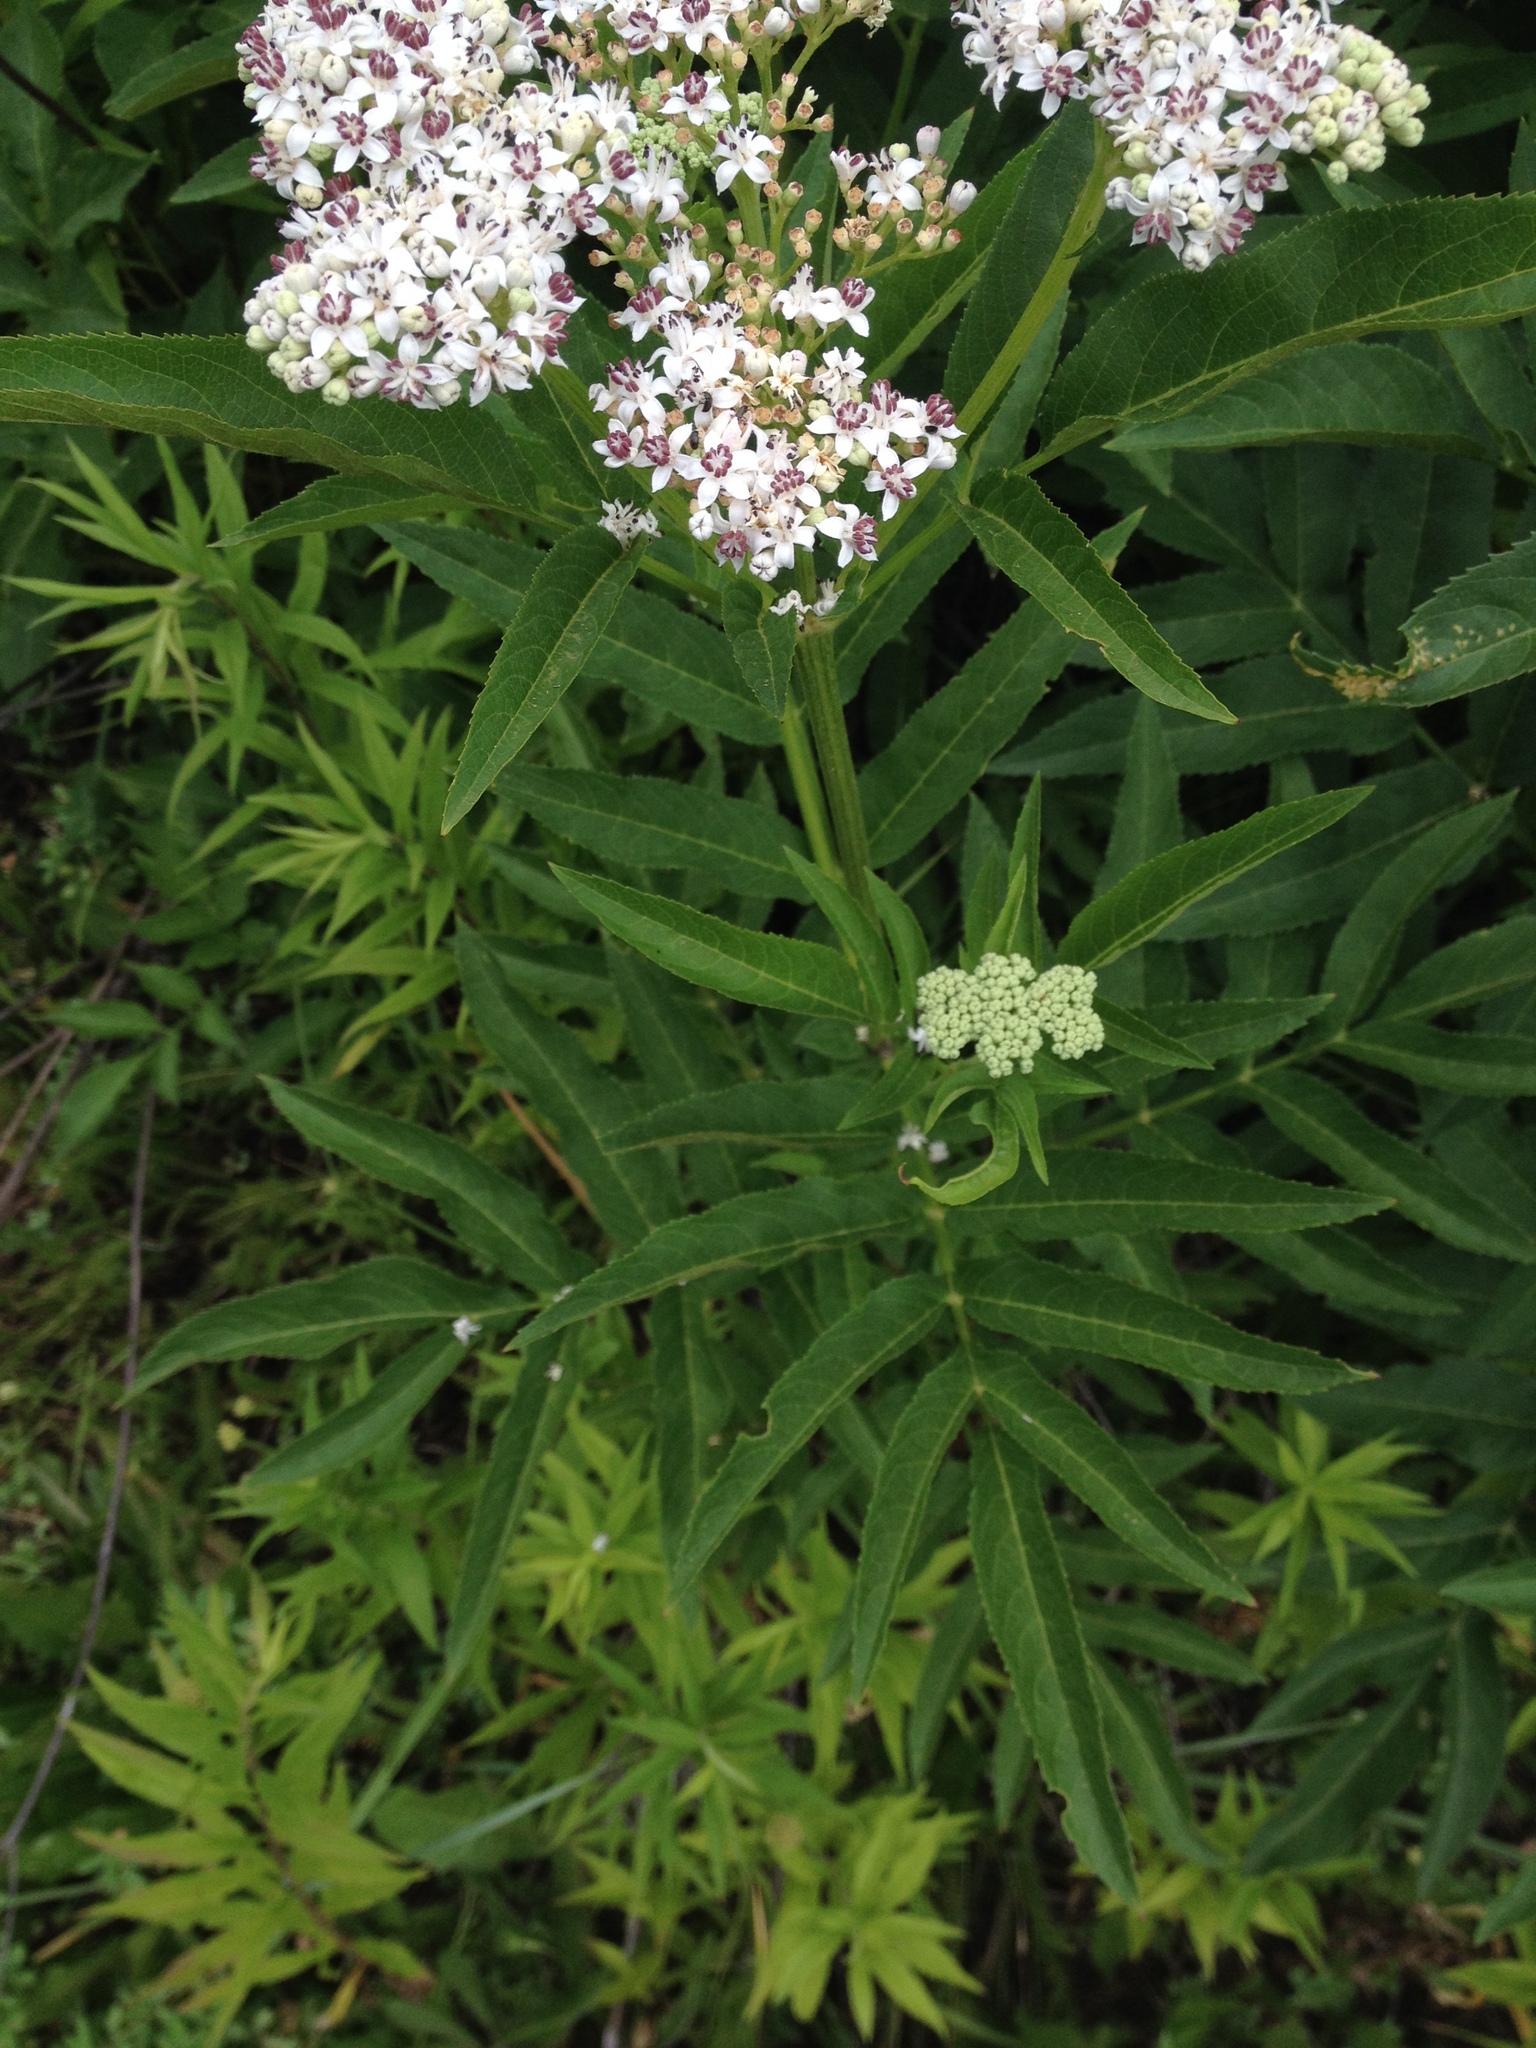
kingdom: Plantae
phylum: Tracheophyta
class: Magnoliopsida
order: Dipsacales
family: Viburnaceae
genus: Sambucus
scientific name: Sambucus ebulus
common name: Dwarf elder
